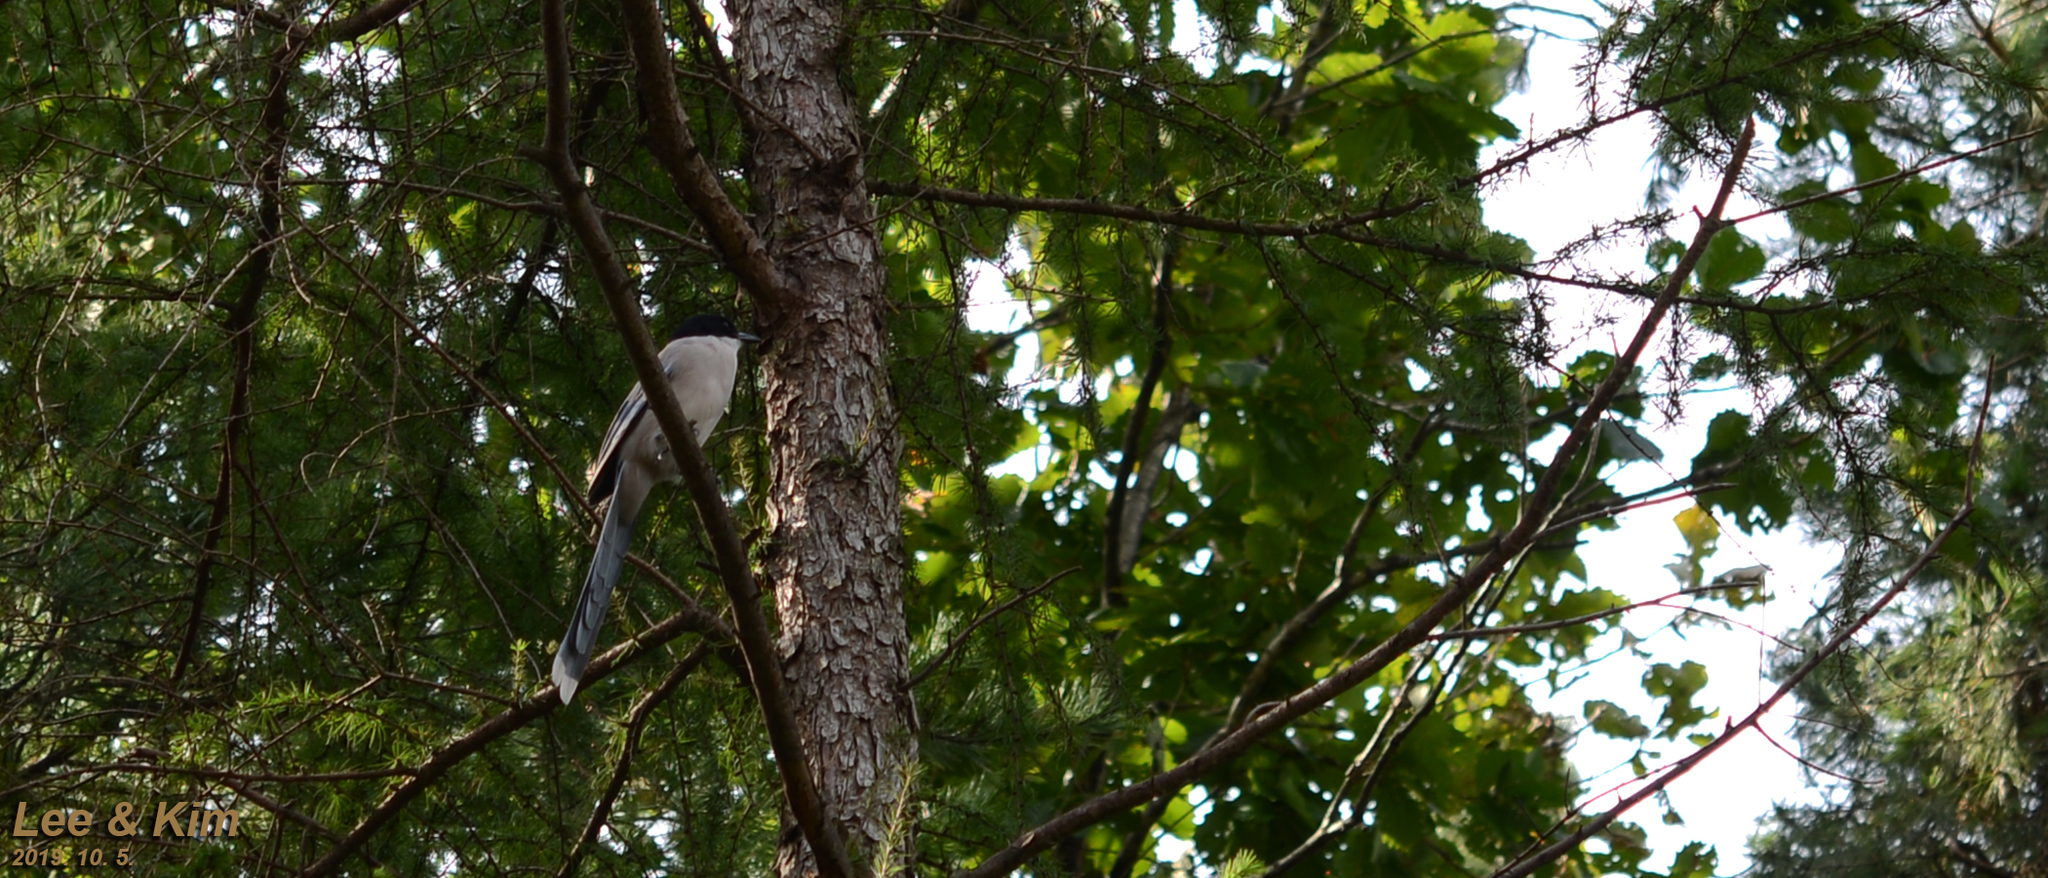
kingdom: Animalia
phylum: Chordata
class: Aves
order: Passeriformes
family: Corvidae
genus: Cyanopica
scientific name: Cyanopica cyanus
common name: Azure-winged magpie
